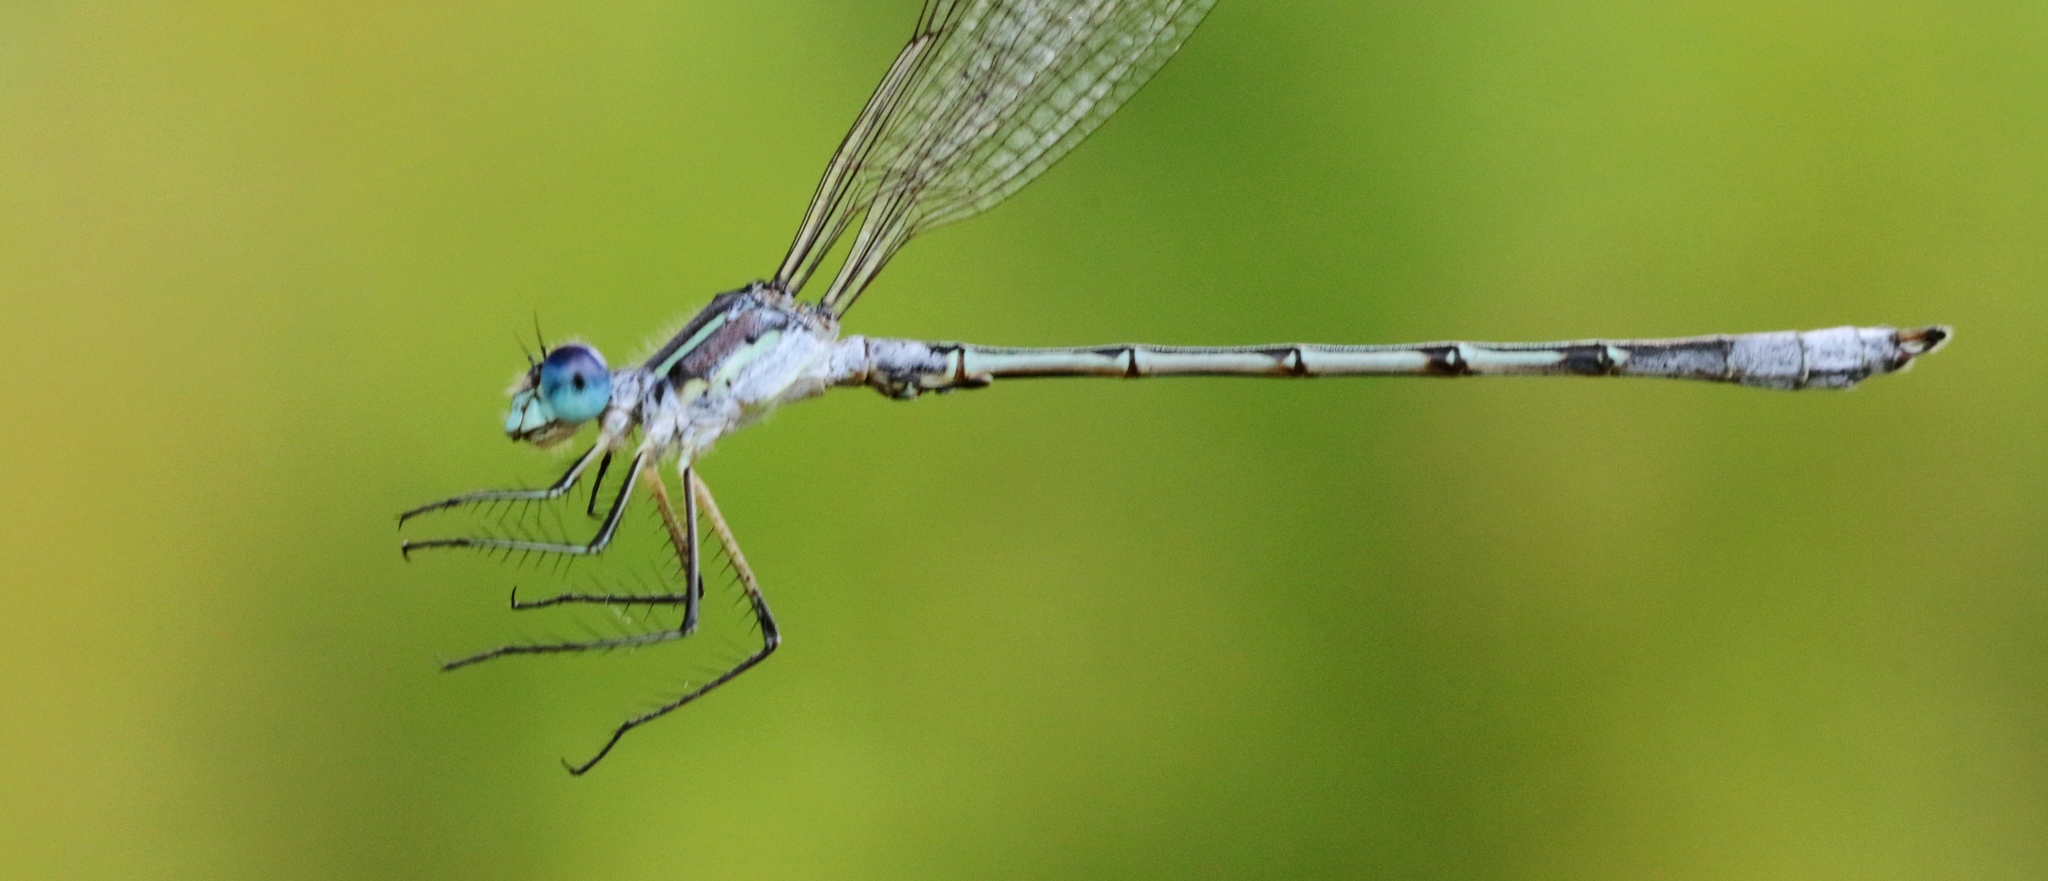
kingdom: Animalia
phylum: Arthropoda
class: Insecta
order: Odonata
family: Lestidae
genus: Lestes
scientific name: Lestes unguiculatus
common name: Lyre-tipped spreadwing
